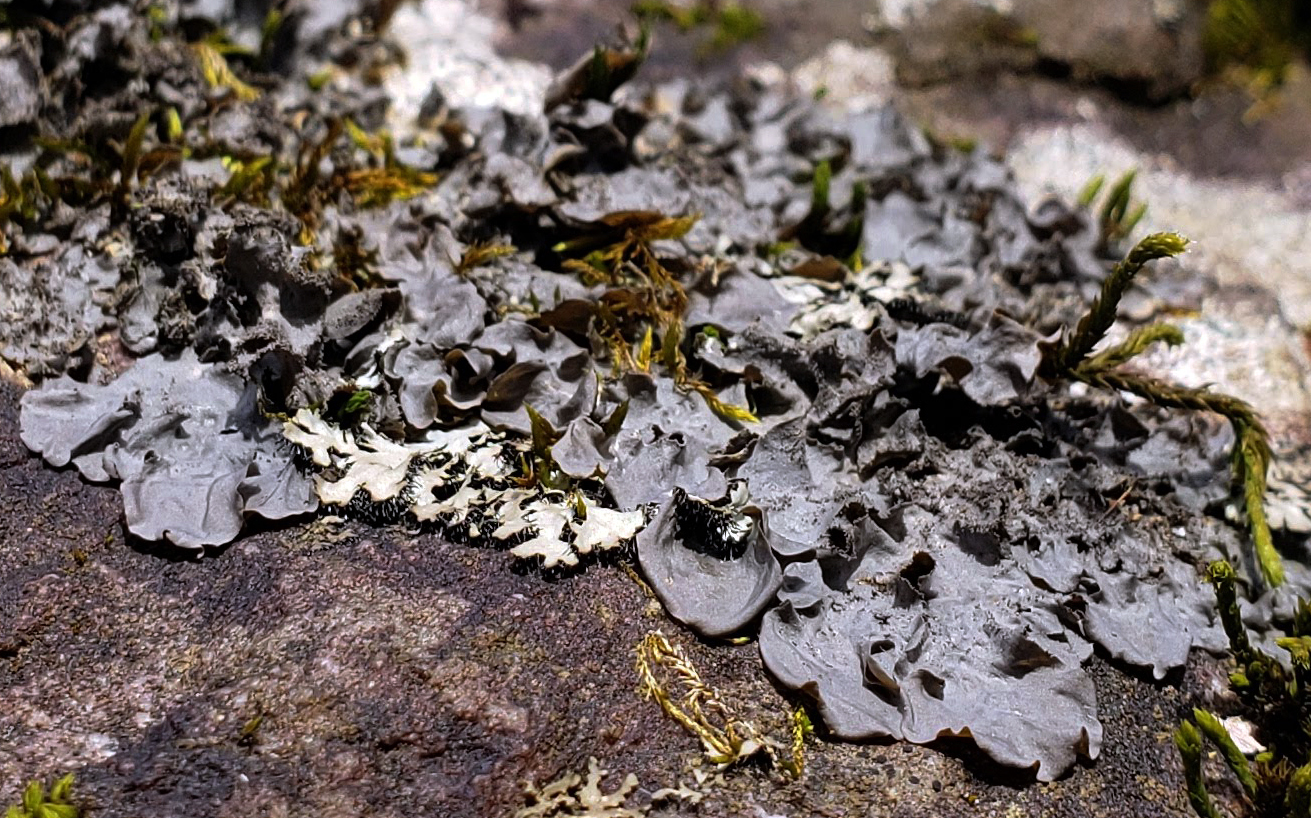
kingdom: Fungi
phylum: Ascomycota
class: Lecanoromycetes
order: Peltigerales
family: Collemataceae
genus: Leptogium
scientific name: Leptogium cyanescens
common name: Blue jellyskin
